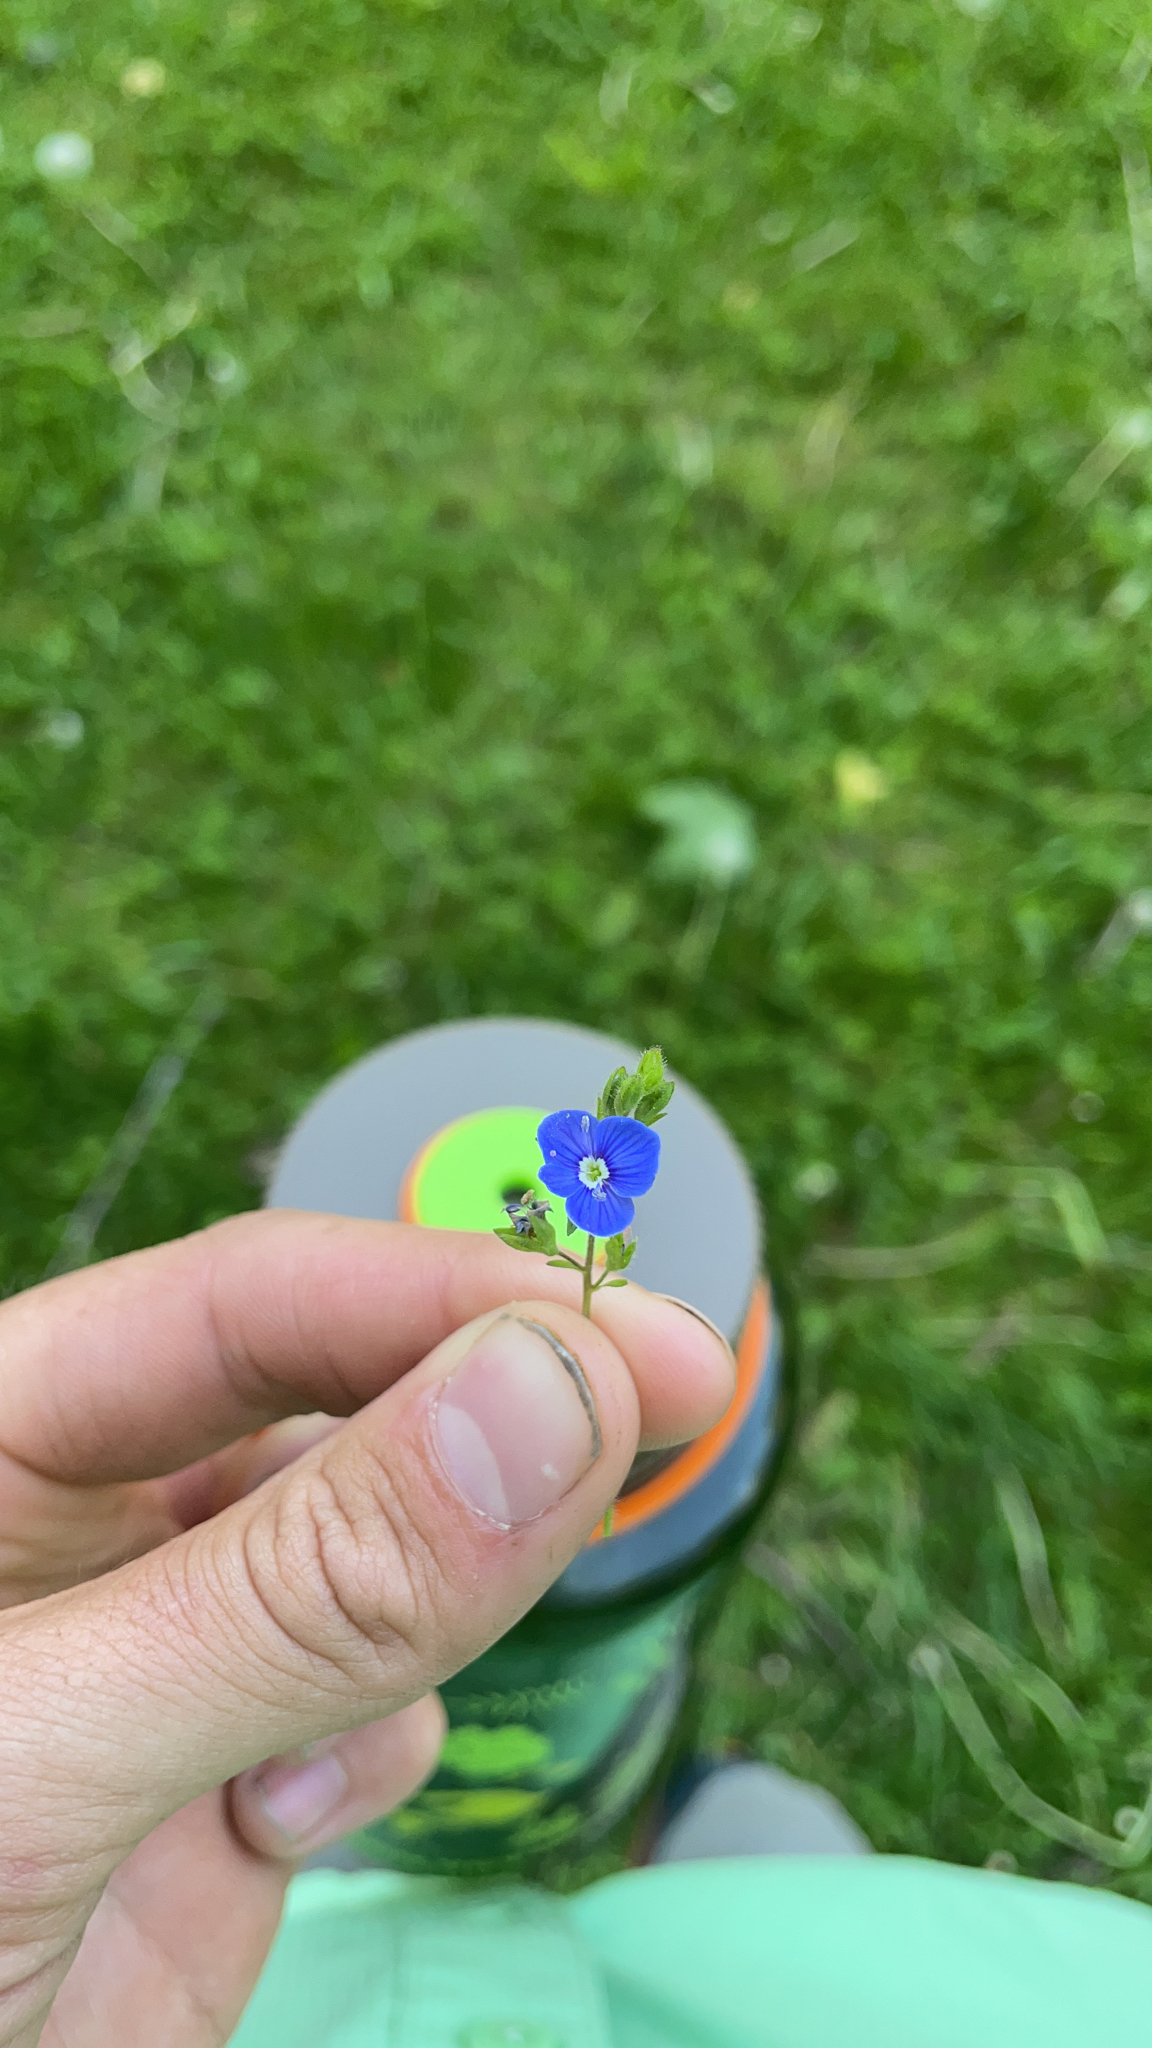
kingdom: Plantae
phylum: Tracheophyta
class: Magnoliopsida
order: Lamiales
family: Plantaginaceae
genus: Veronica
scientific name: Veronica chamaedrys
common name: Germander speedwell
